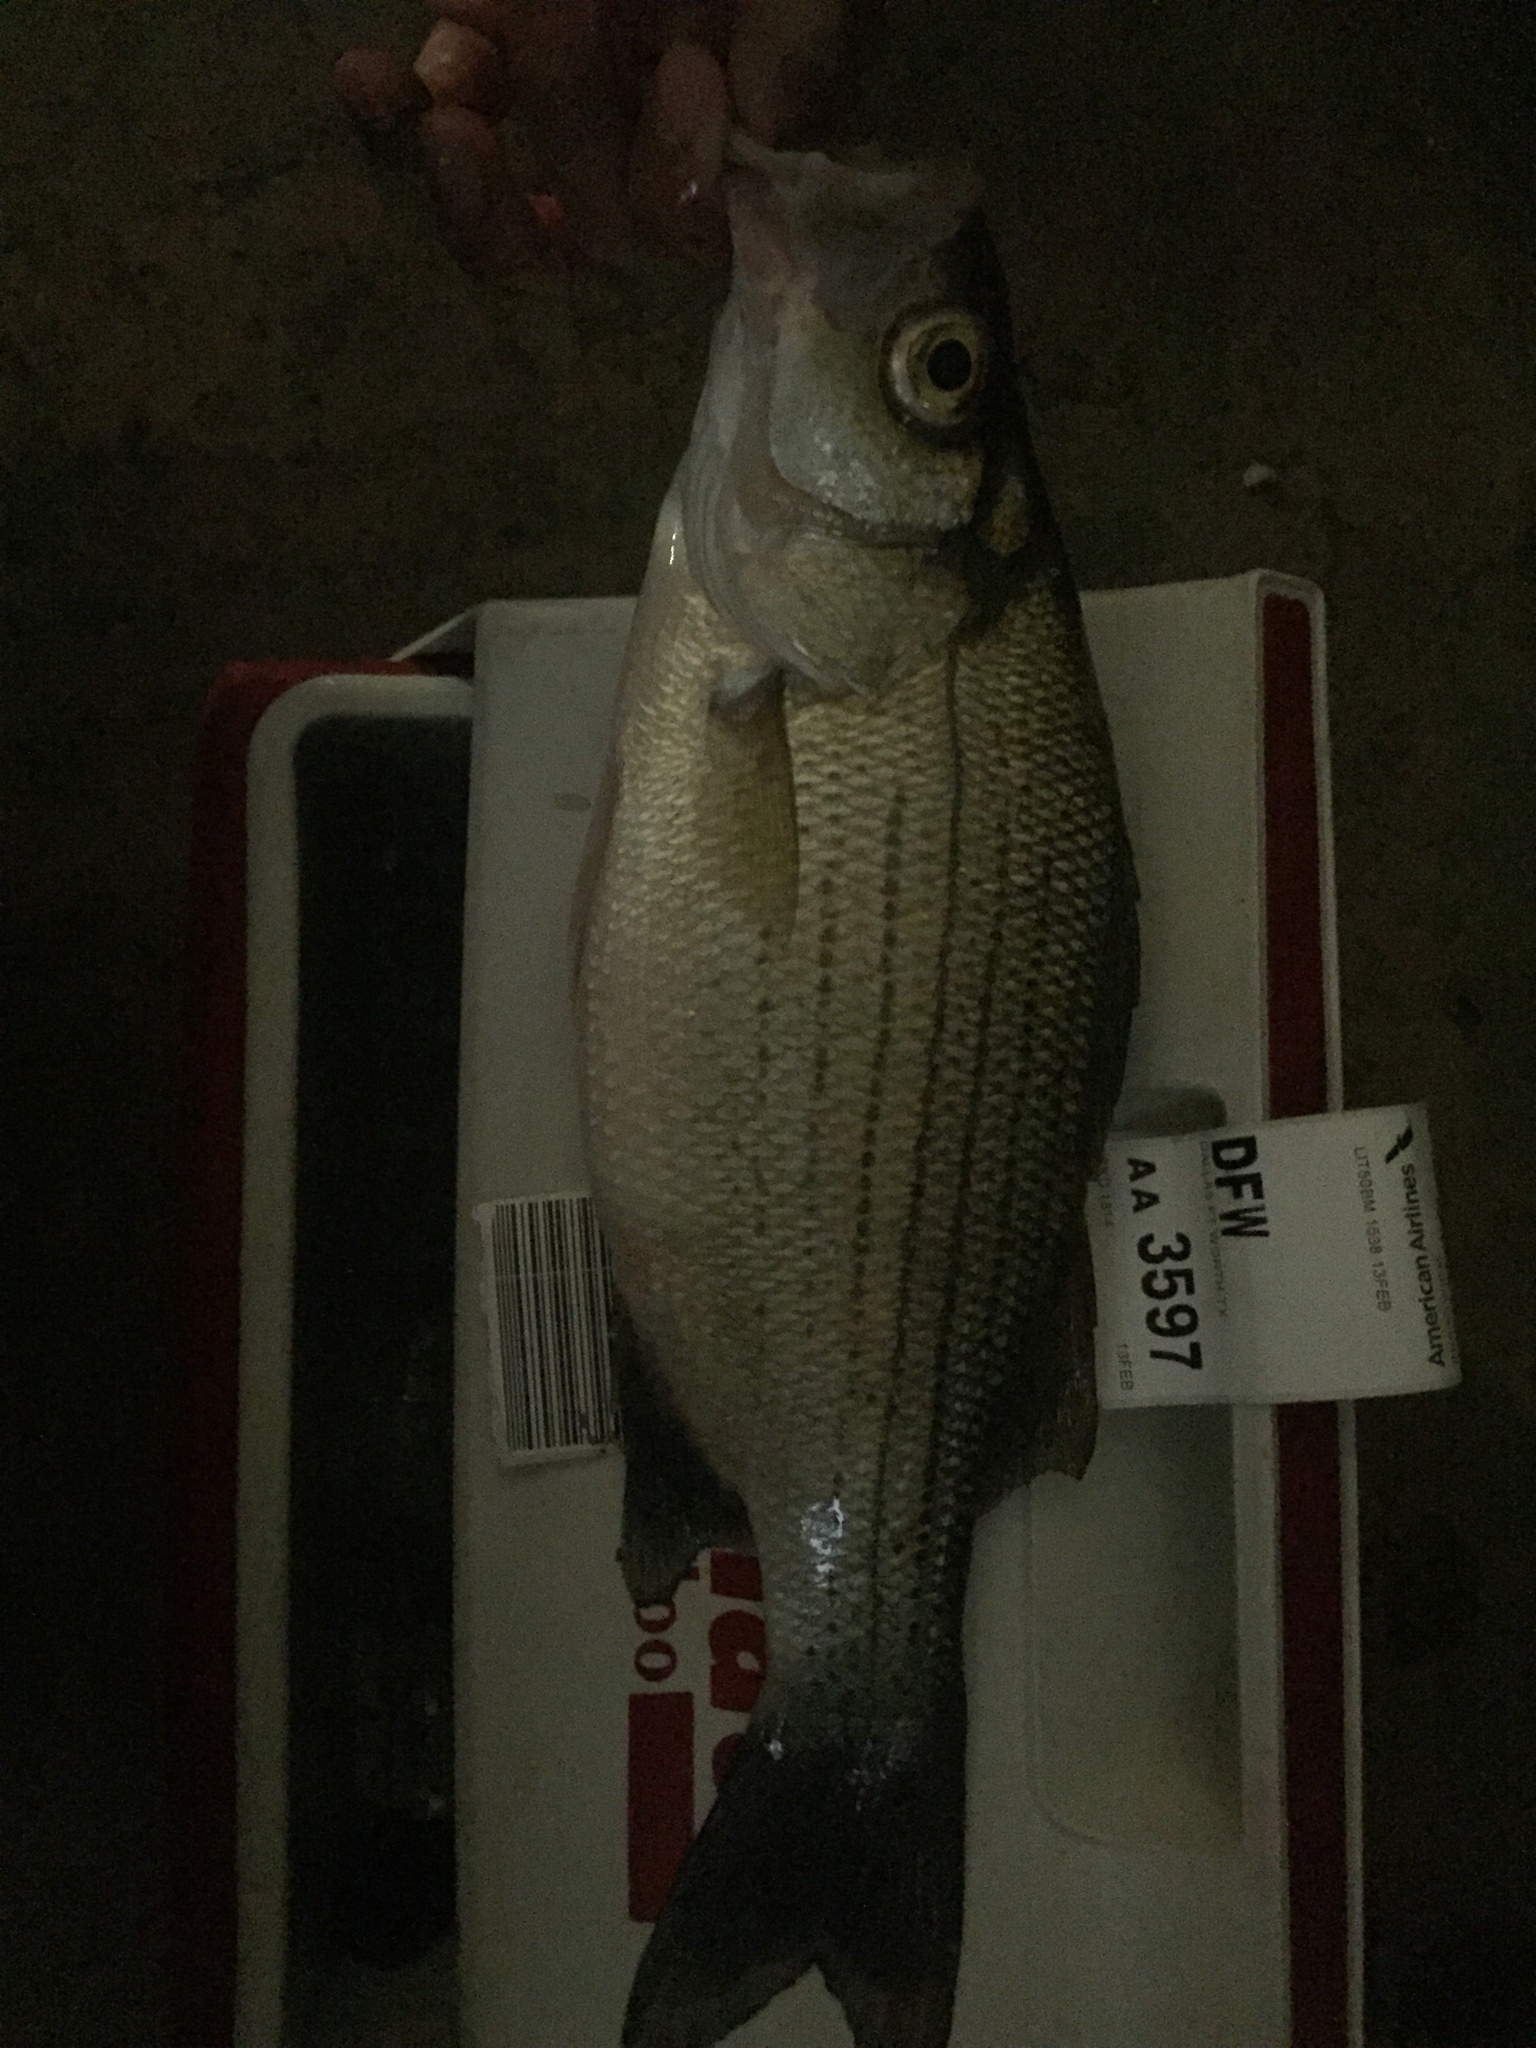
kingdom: Animalia
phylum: Chordata
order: Perciformes
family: Moronidae
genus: Morone
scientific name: Morone chrysops
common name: White bass
